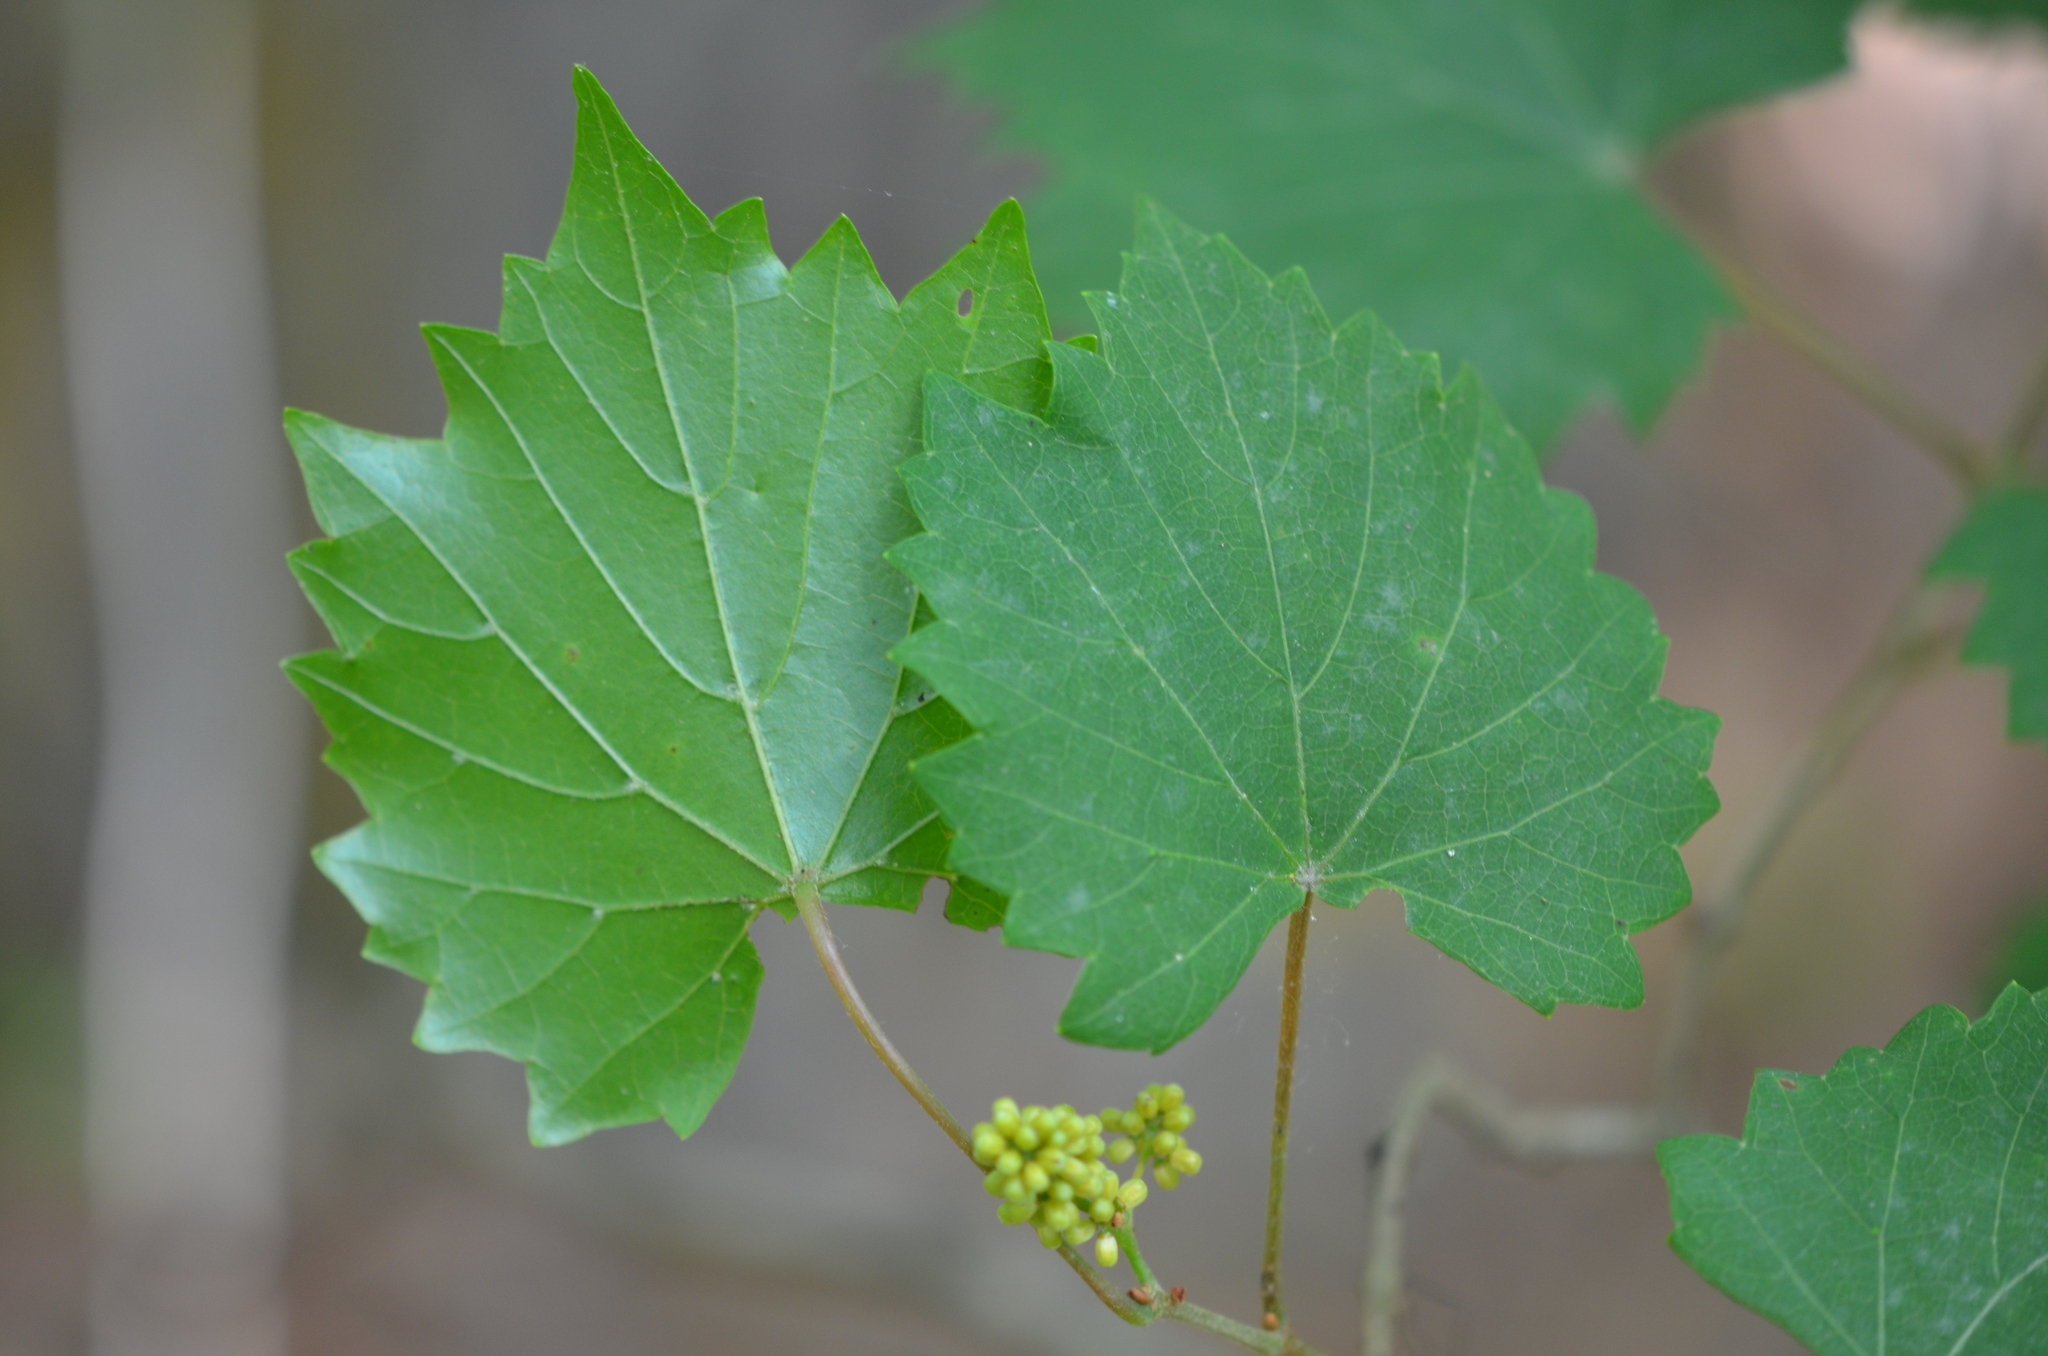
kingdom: Plantae
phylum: Tracheophyta
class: Magnoliopsida
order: Vitales
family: Vitaceae
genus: Vitis
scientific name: Vitis rotundifolia
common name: Muscadine grape
